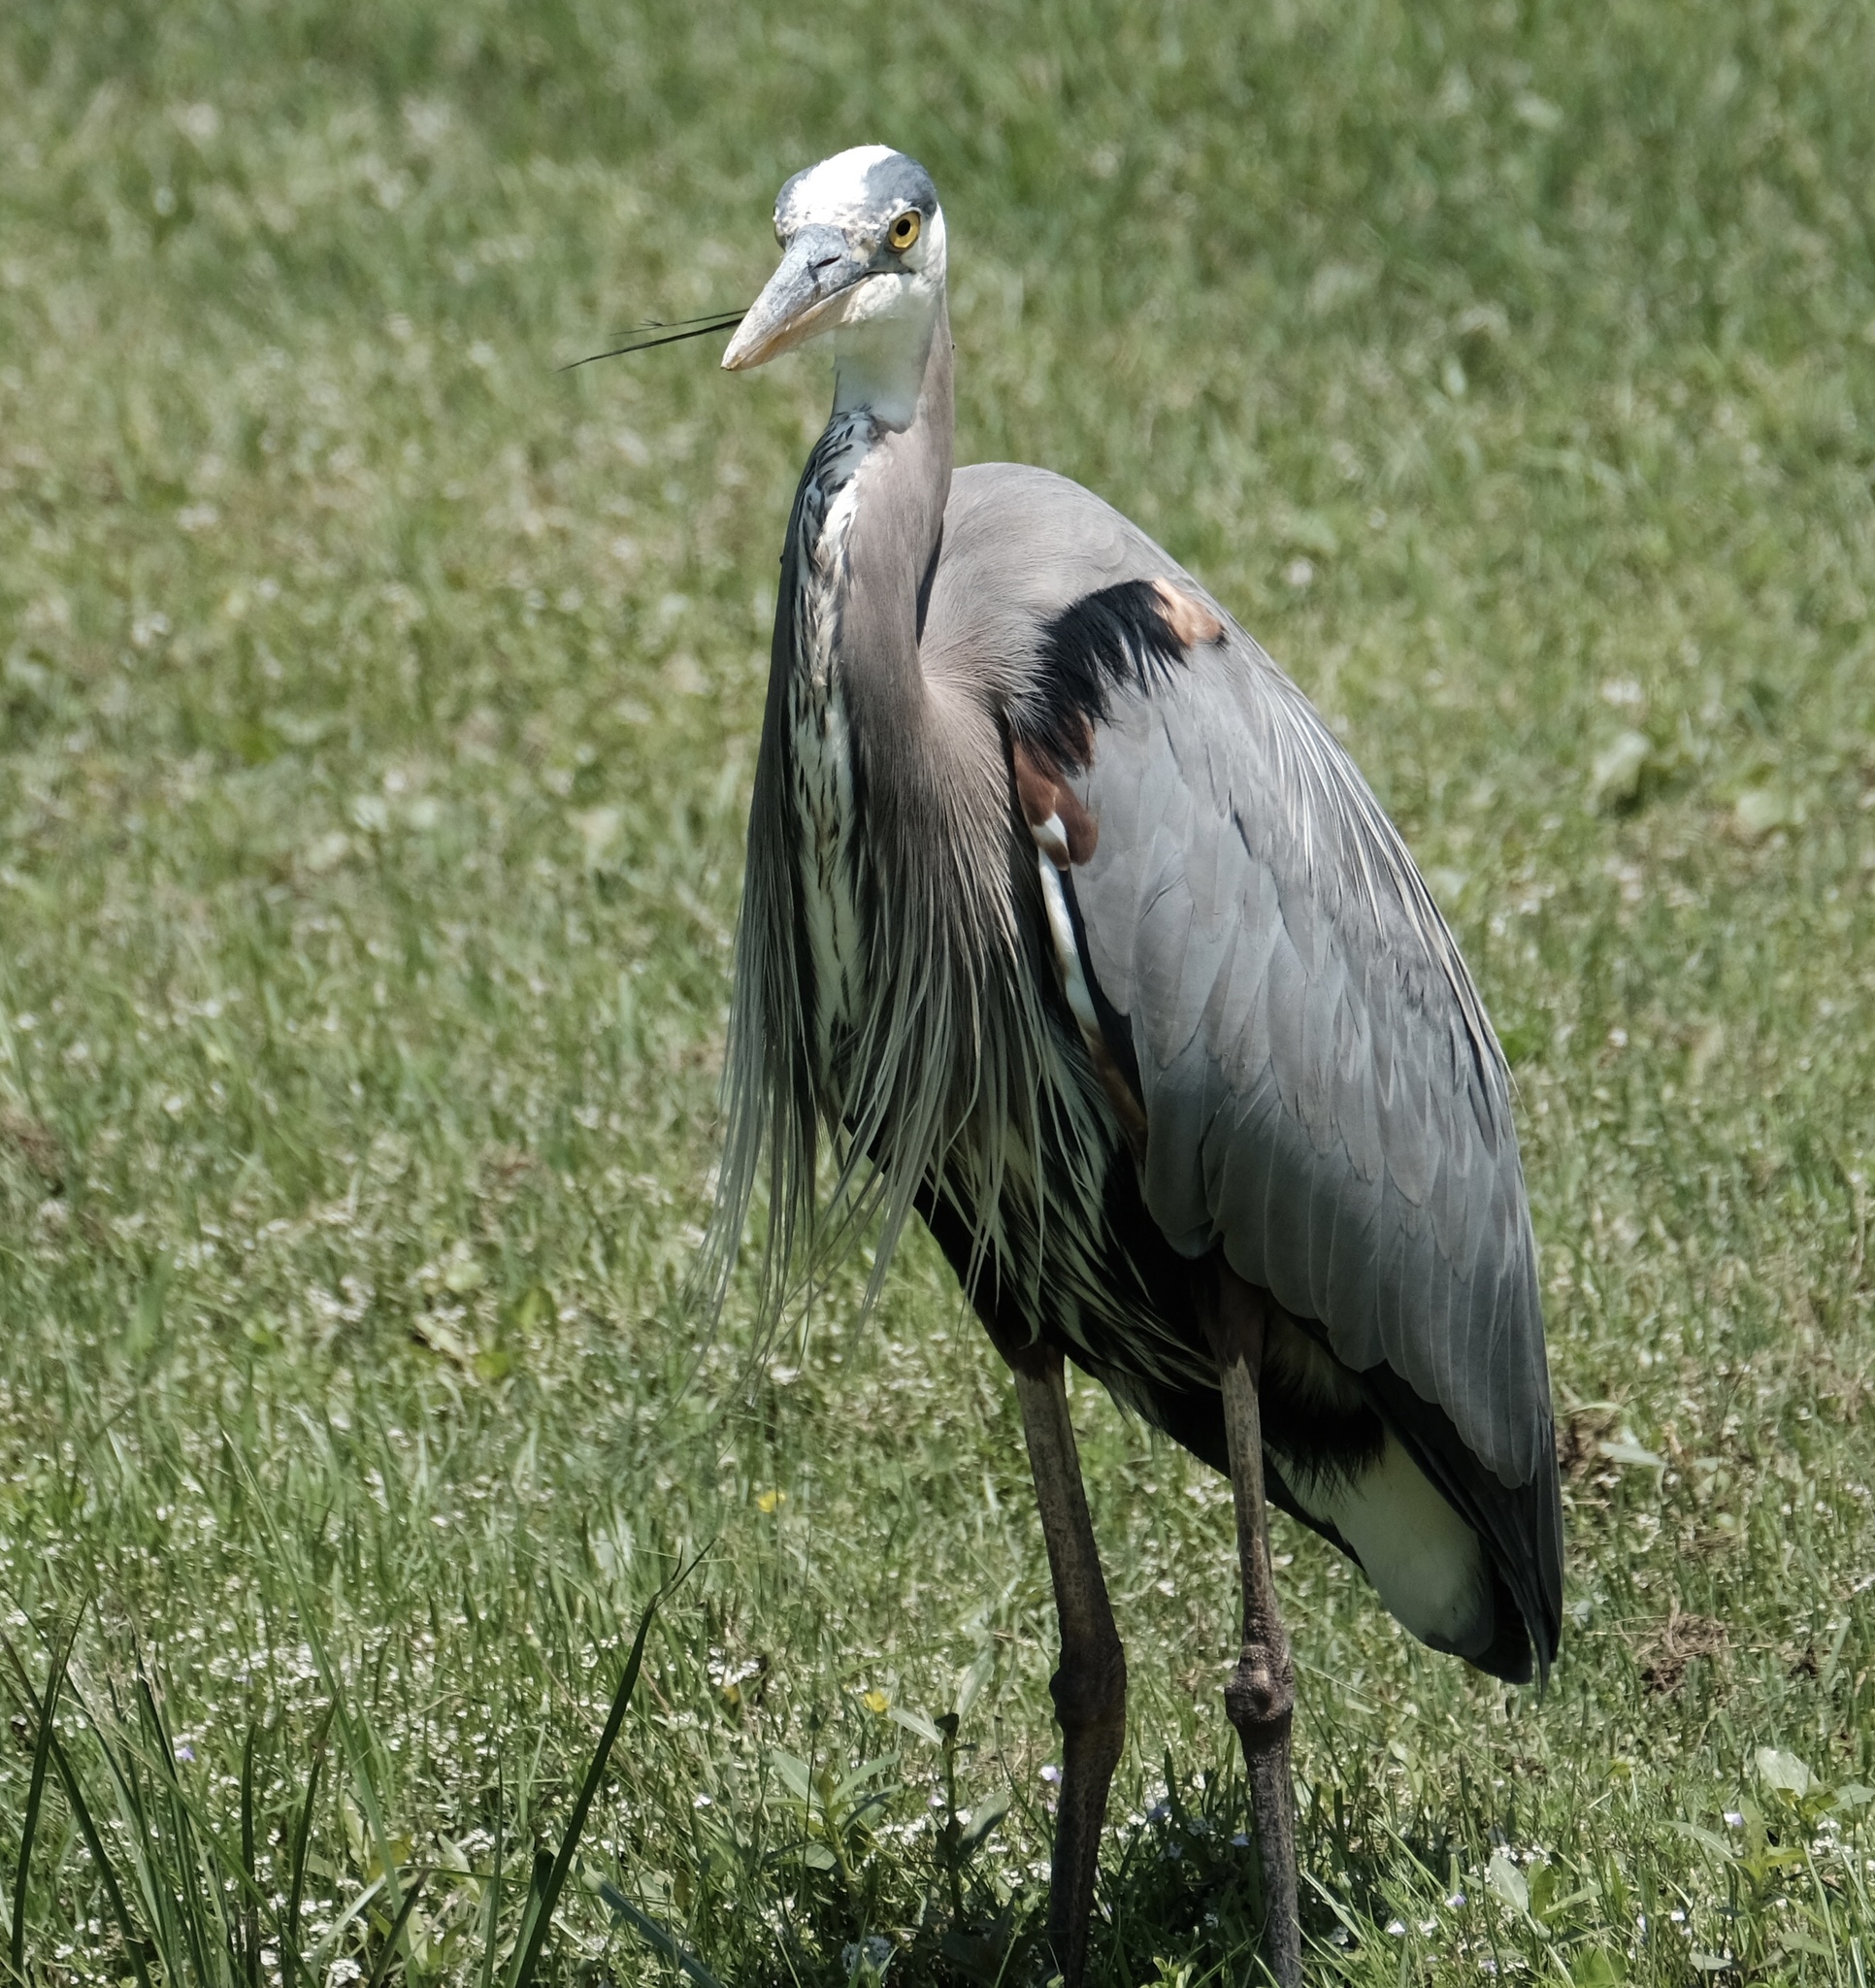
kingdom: Animalia
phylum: Chordata
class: Aves
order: Pelecaniformes
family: Ardeidae
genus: Ardea
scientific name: Ardea herodias
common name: Great blue heron
